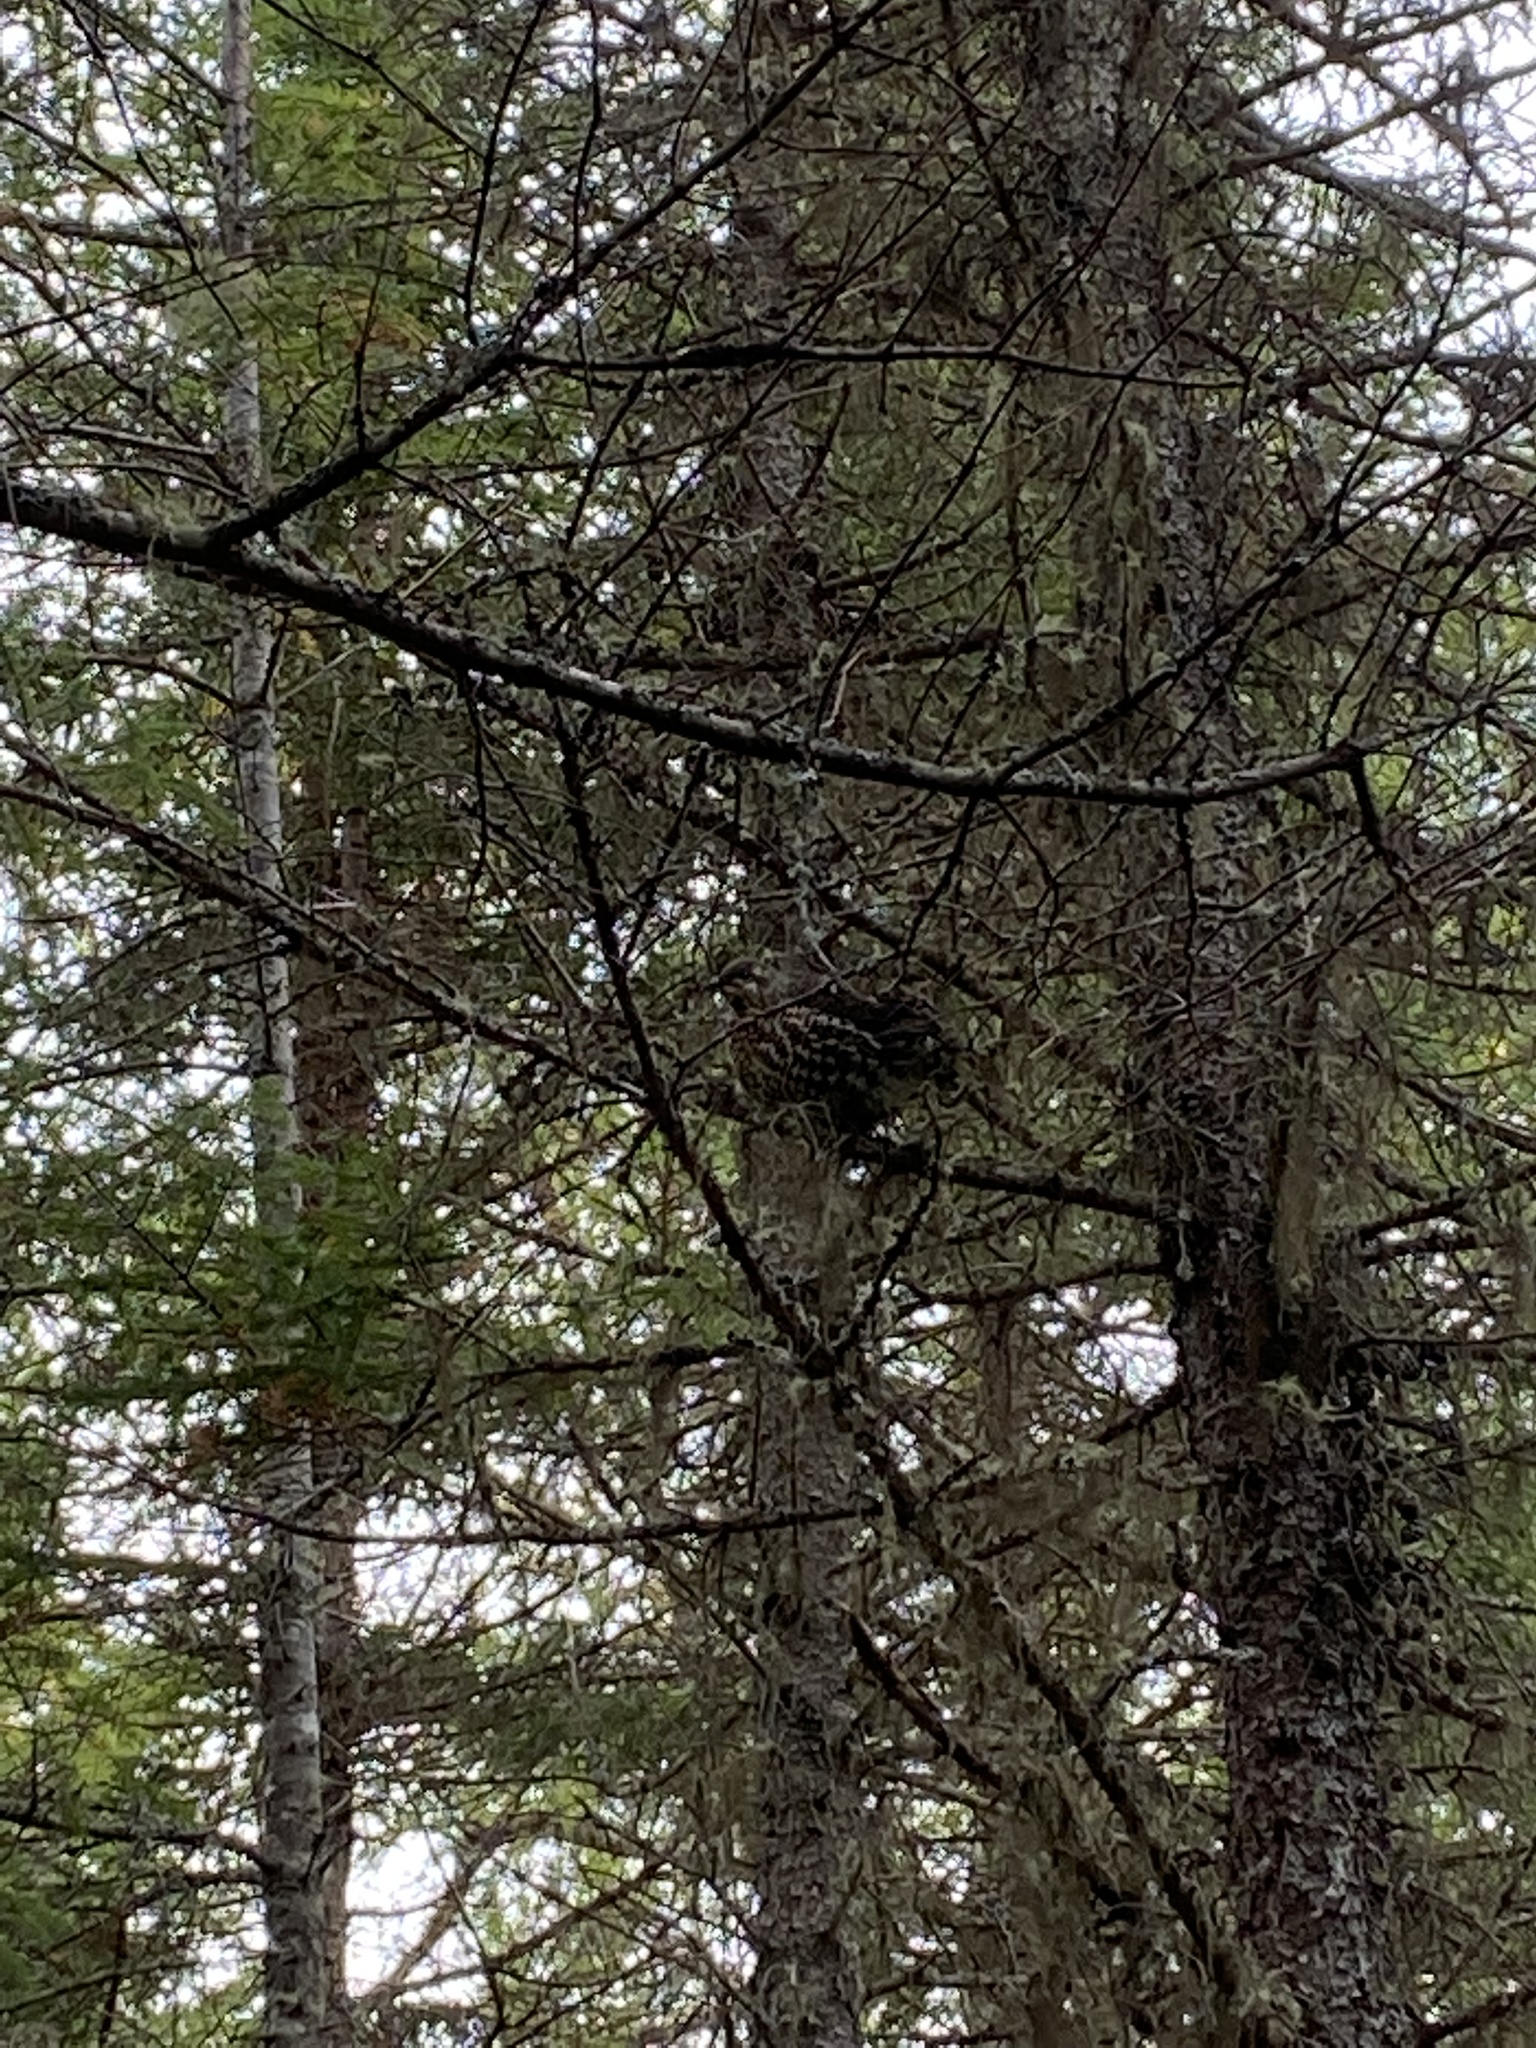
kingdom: Animalia
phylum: Chordata
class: Aves
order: Galliformes
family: Phasianidae
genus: Canachites
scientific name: Canachites canadensis
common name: Spruce grouse
